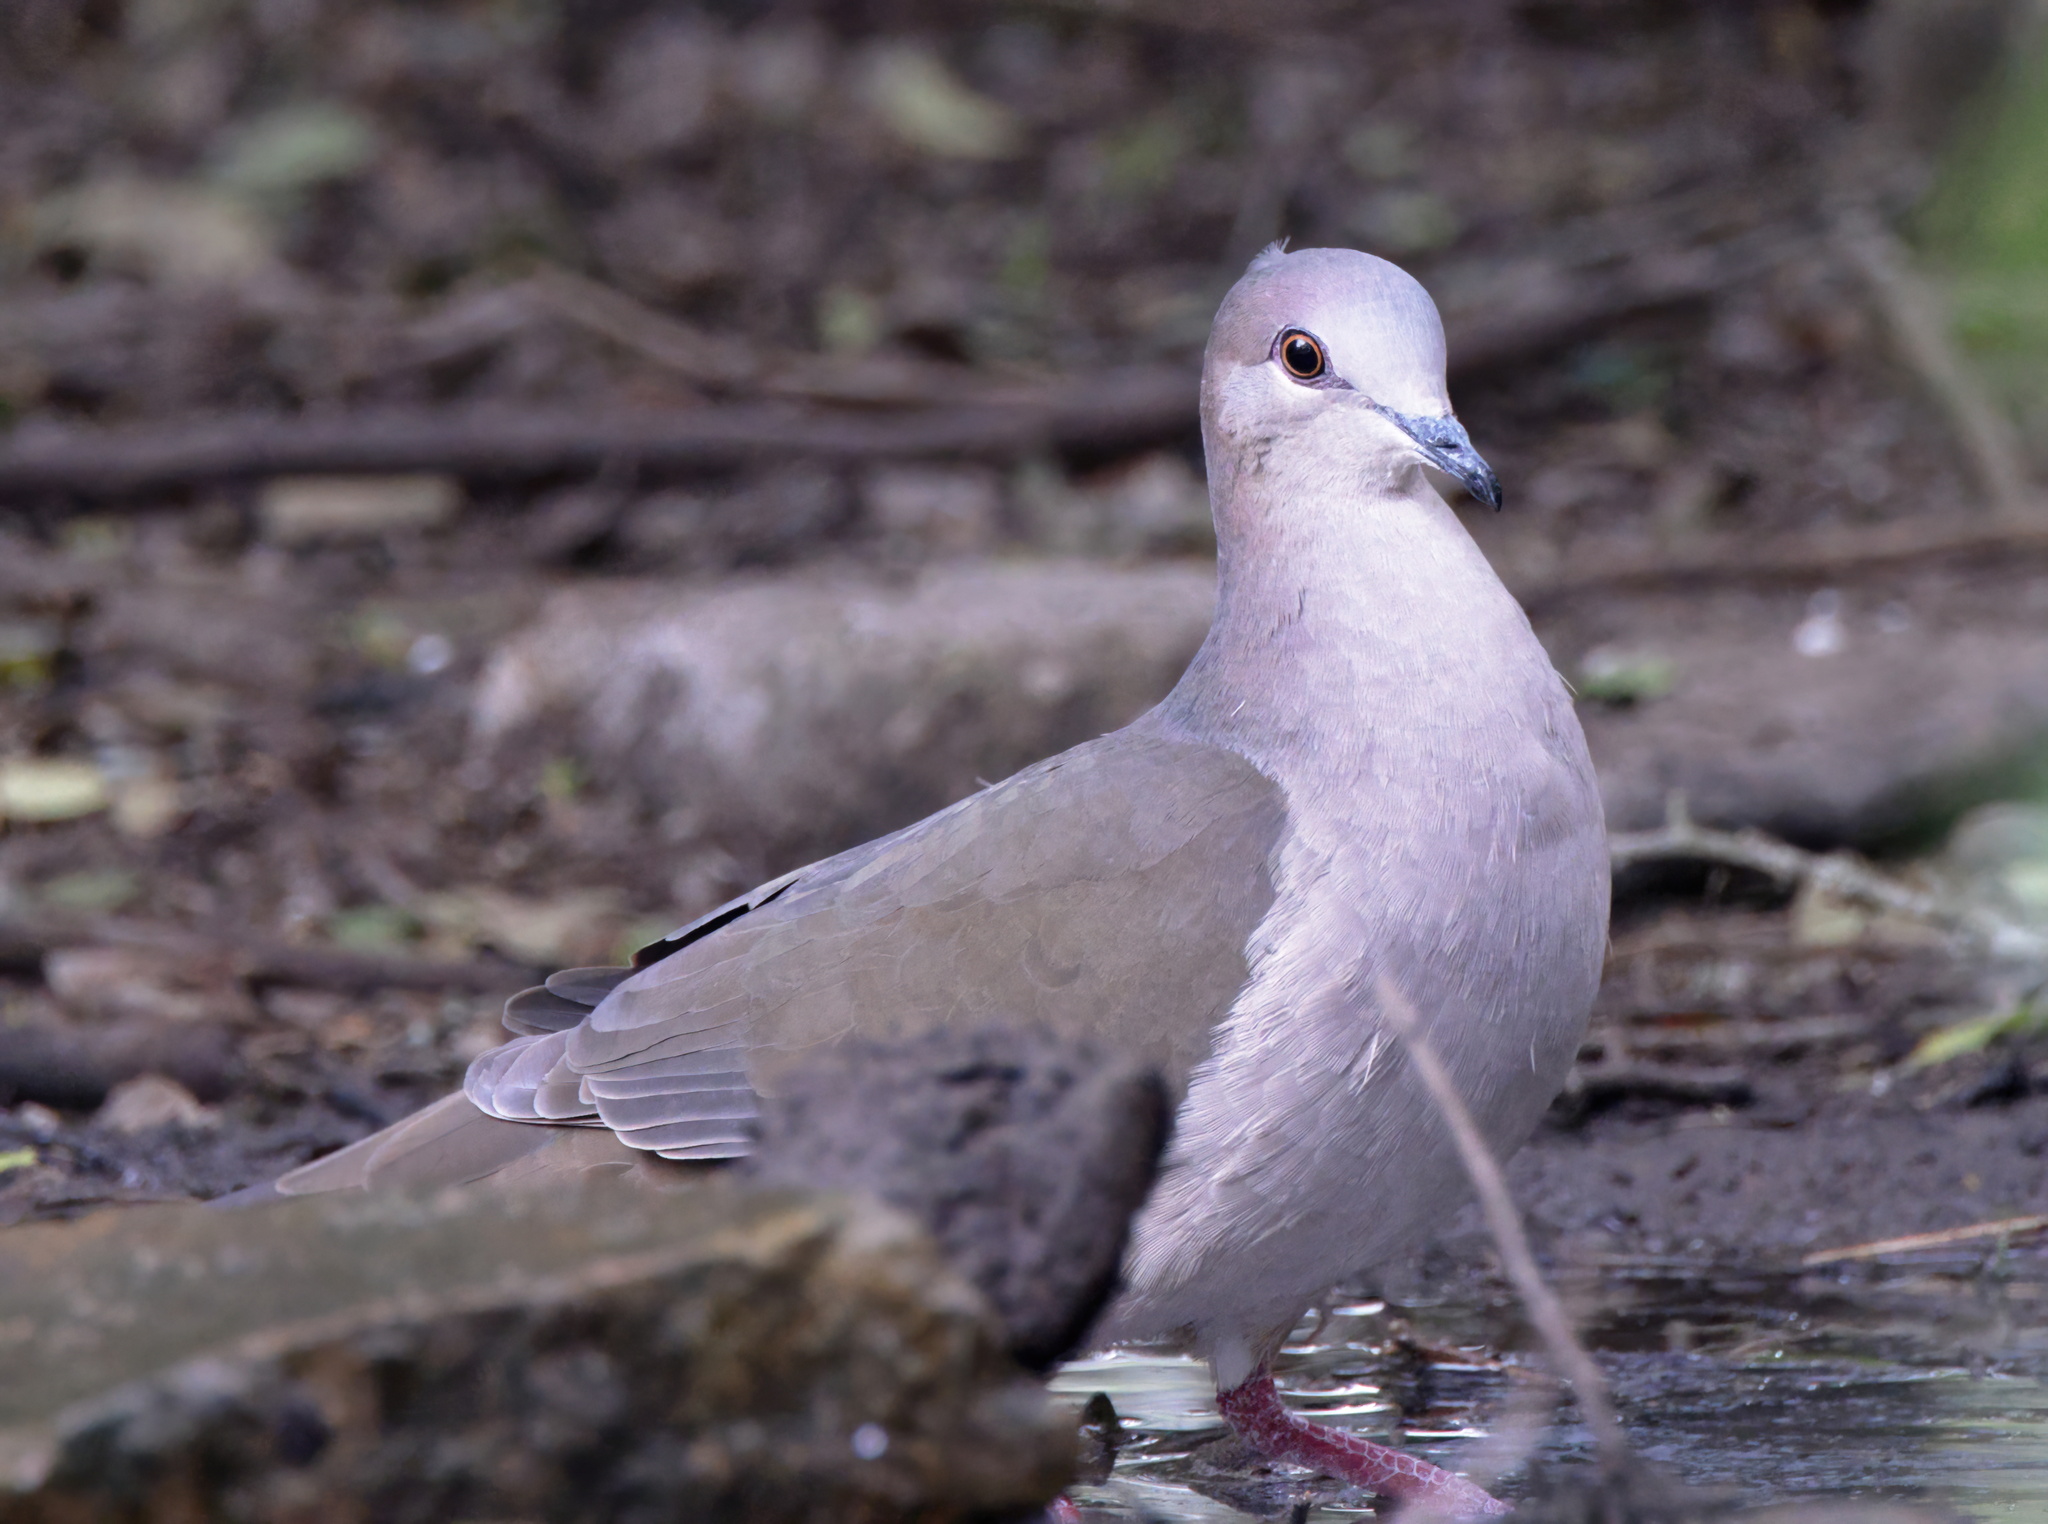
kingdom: Animalia
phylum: Chordata
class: Aves
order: Columbiformes
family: Columbidae
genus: Leptotila
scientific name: Leptotila verreauxi
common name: White-tipped dove
